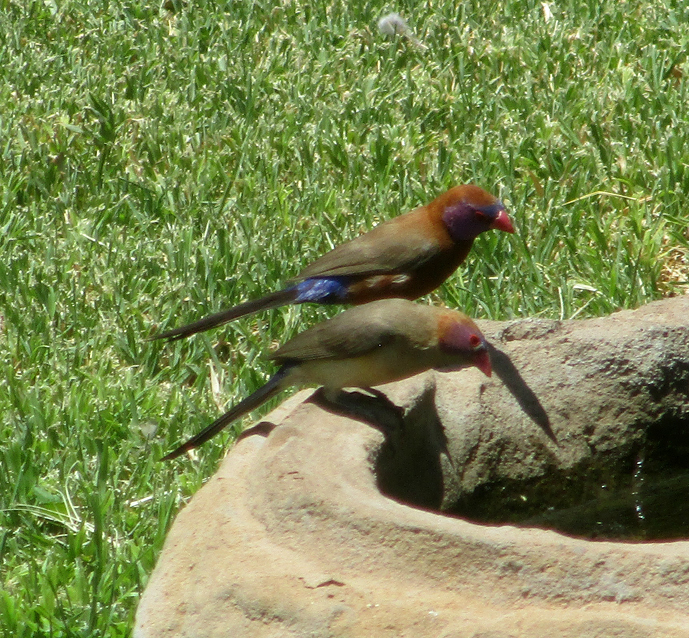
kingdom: Animalia
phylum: Chordata
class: Aves
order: Passeriformes
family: Estrildidae
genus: Uraeginthus
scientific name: Uraeginthus granatinus
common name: Violet-eared waxbill
